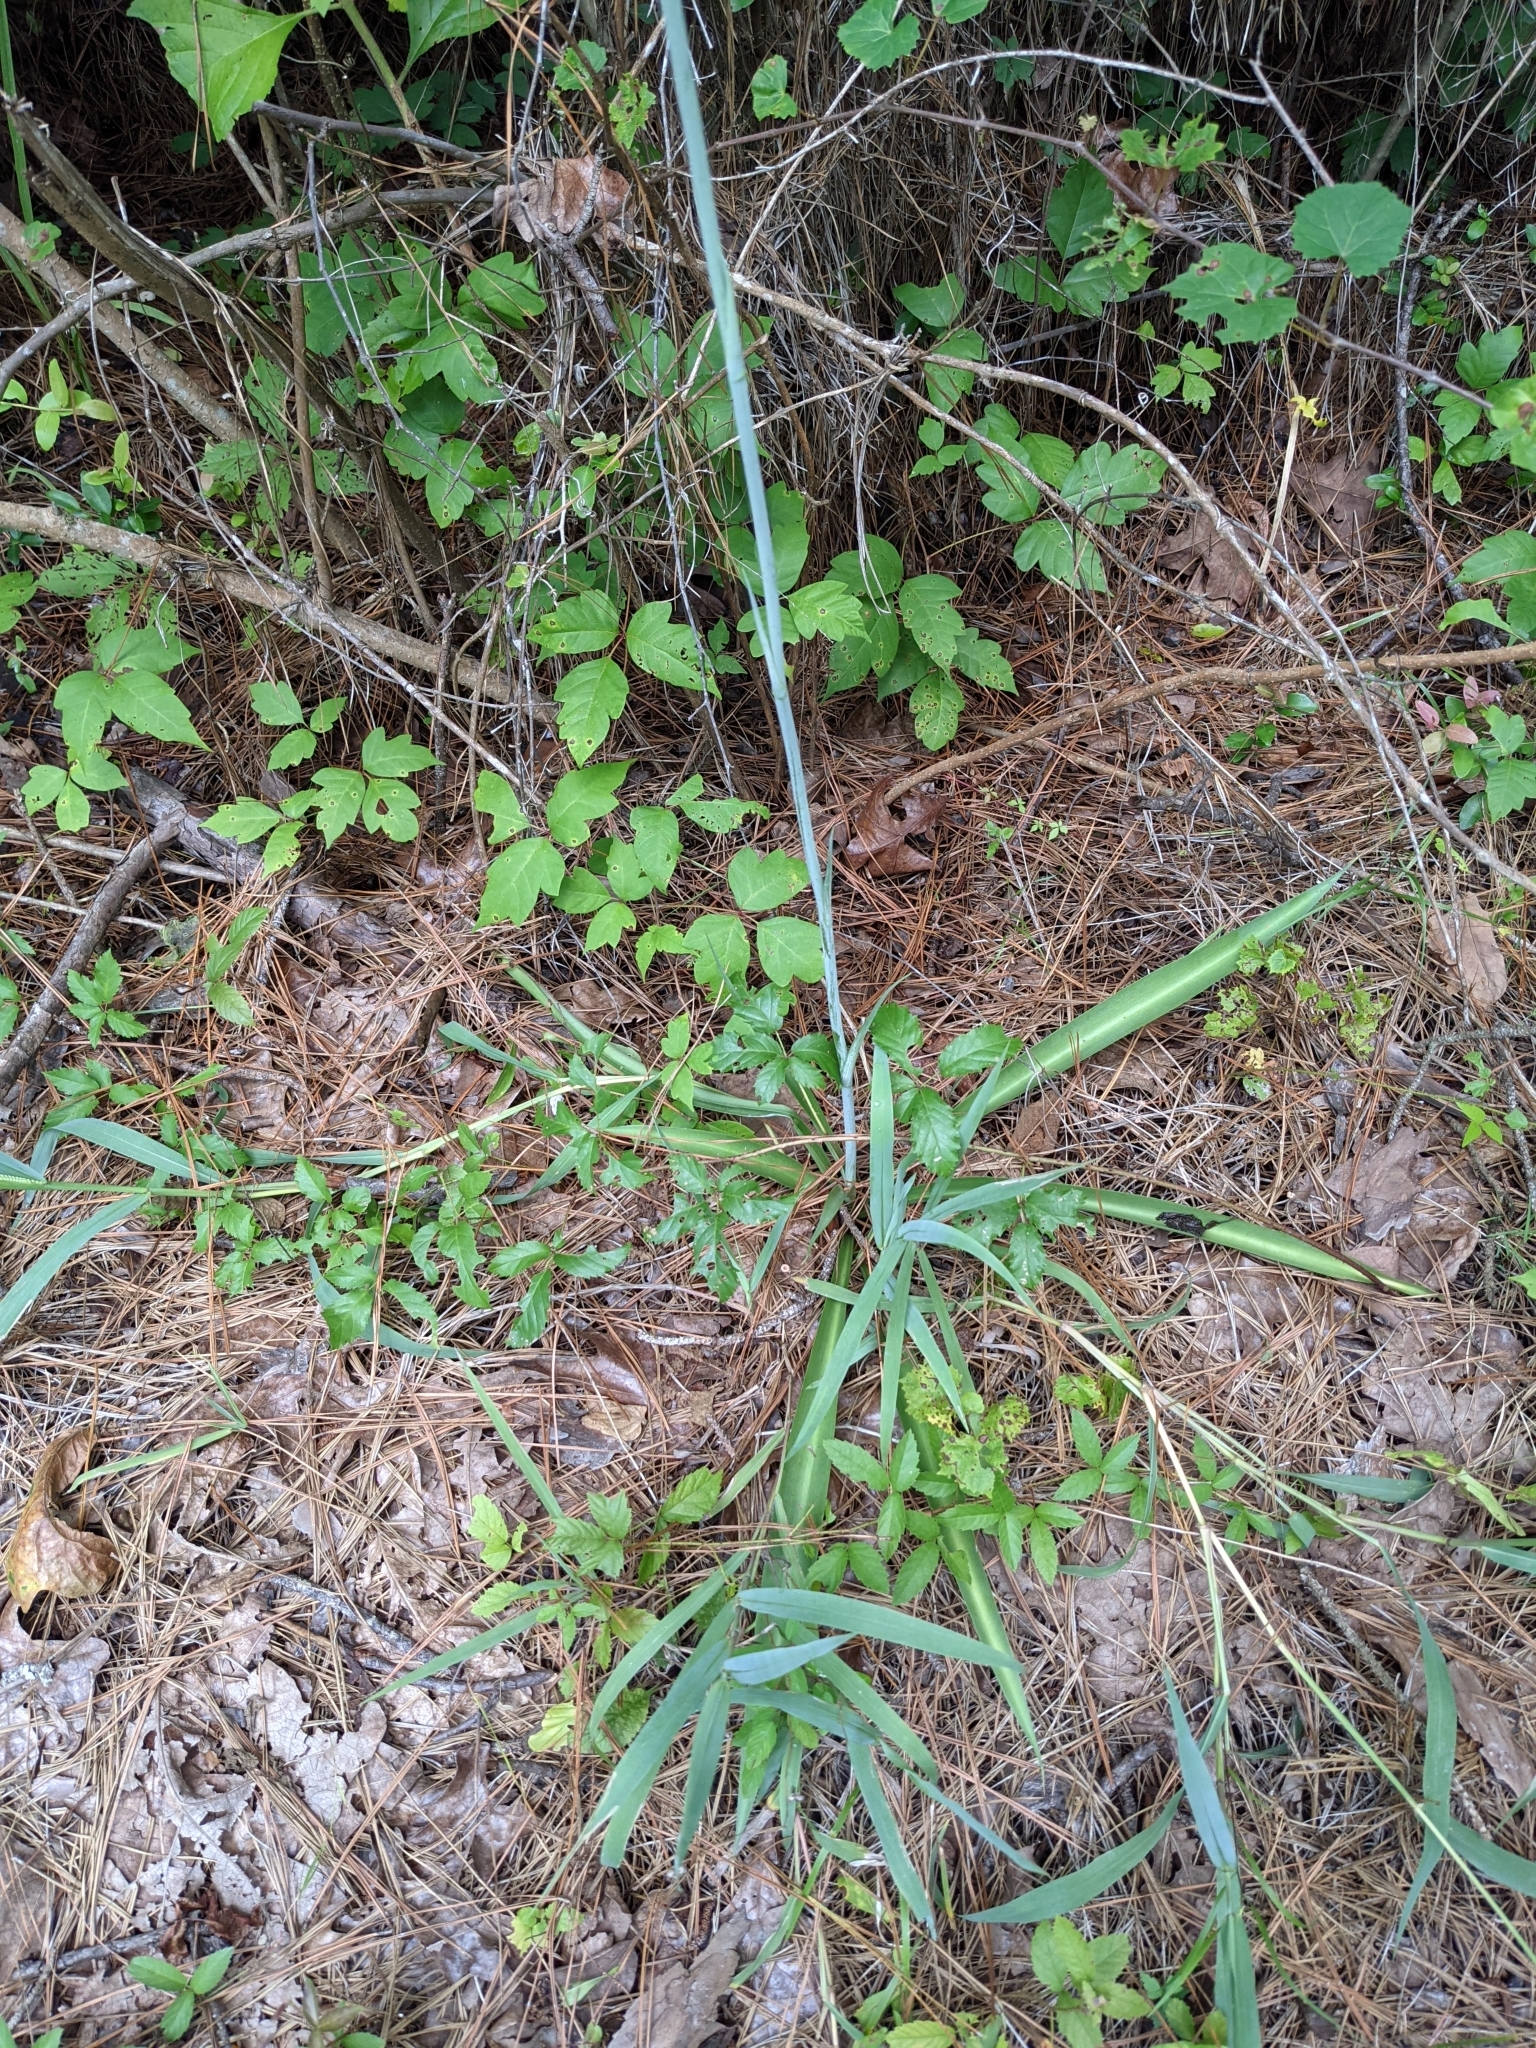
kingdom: Plantae
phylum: Tracheophyta
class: Liliopsida
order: Asparagales
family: Asparagaceae
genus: Agave
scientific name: Agave virginica
